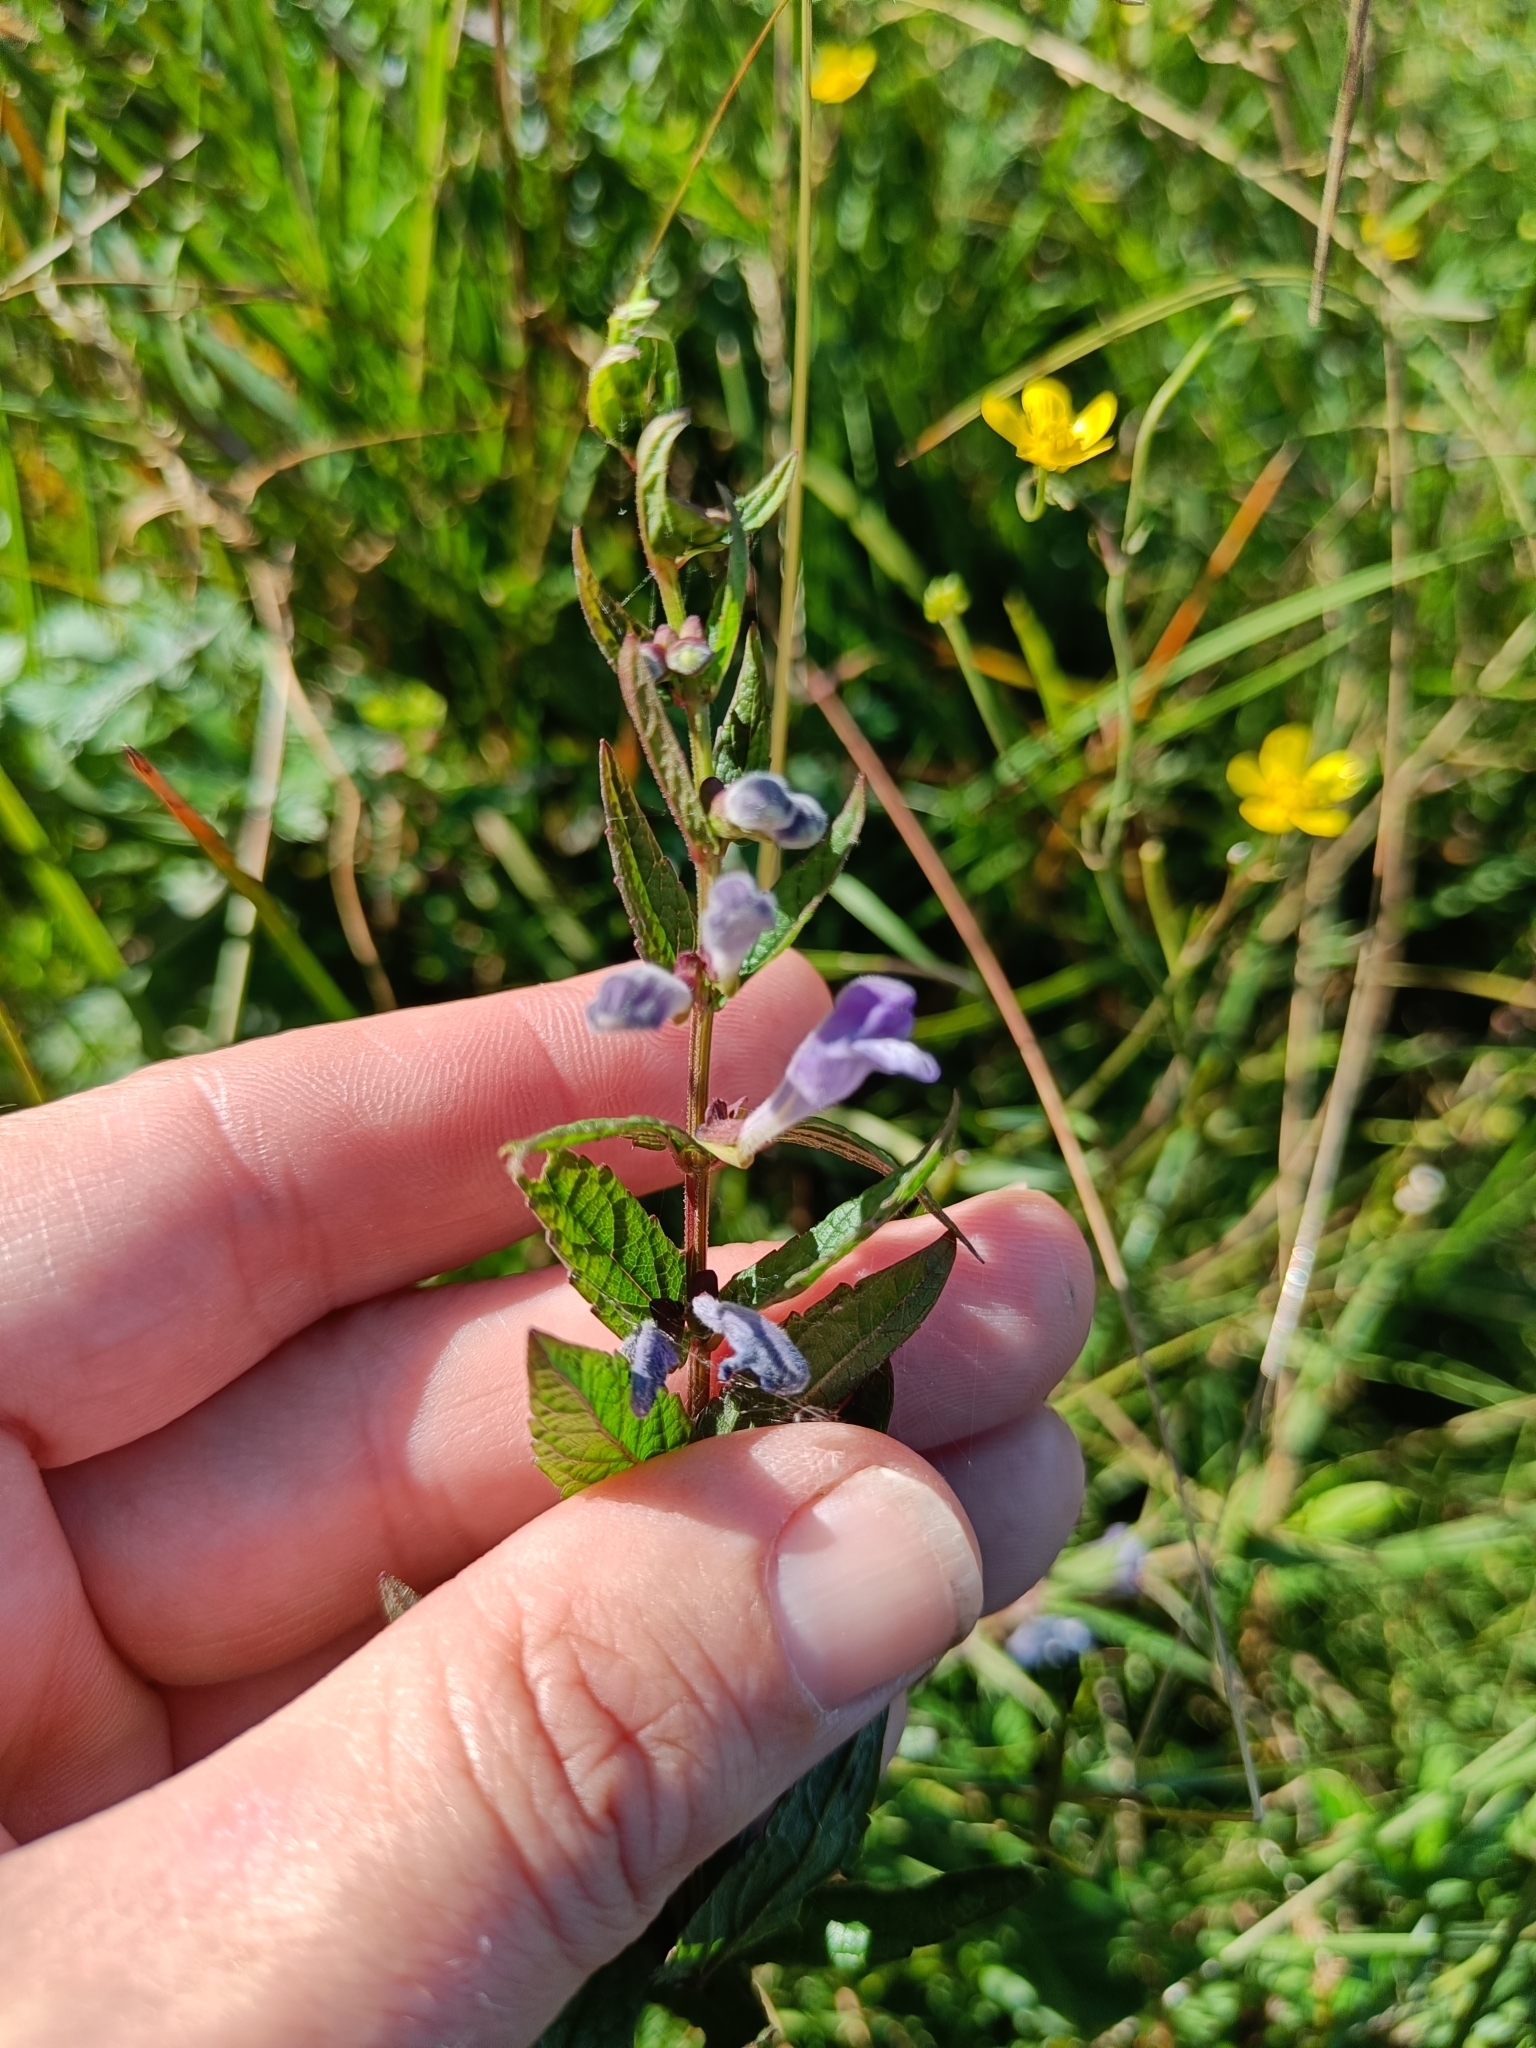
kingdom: Plantae
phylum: Tracheophyta
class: Magnoliopsida
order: Lamiales
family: Lamiaceae
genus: Scutellaria
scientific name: Scutellaria galericulata
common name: Skullcap
